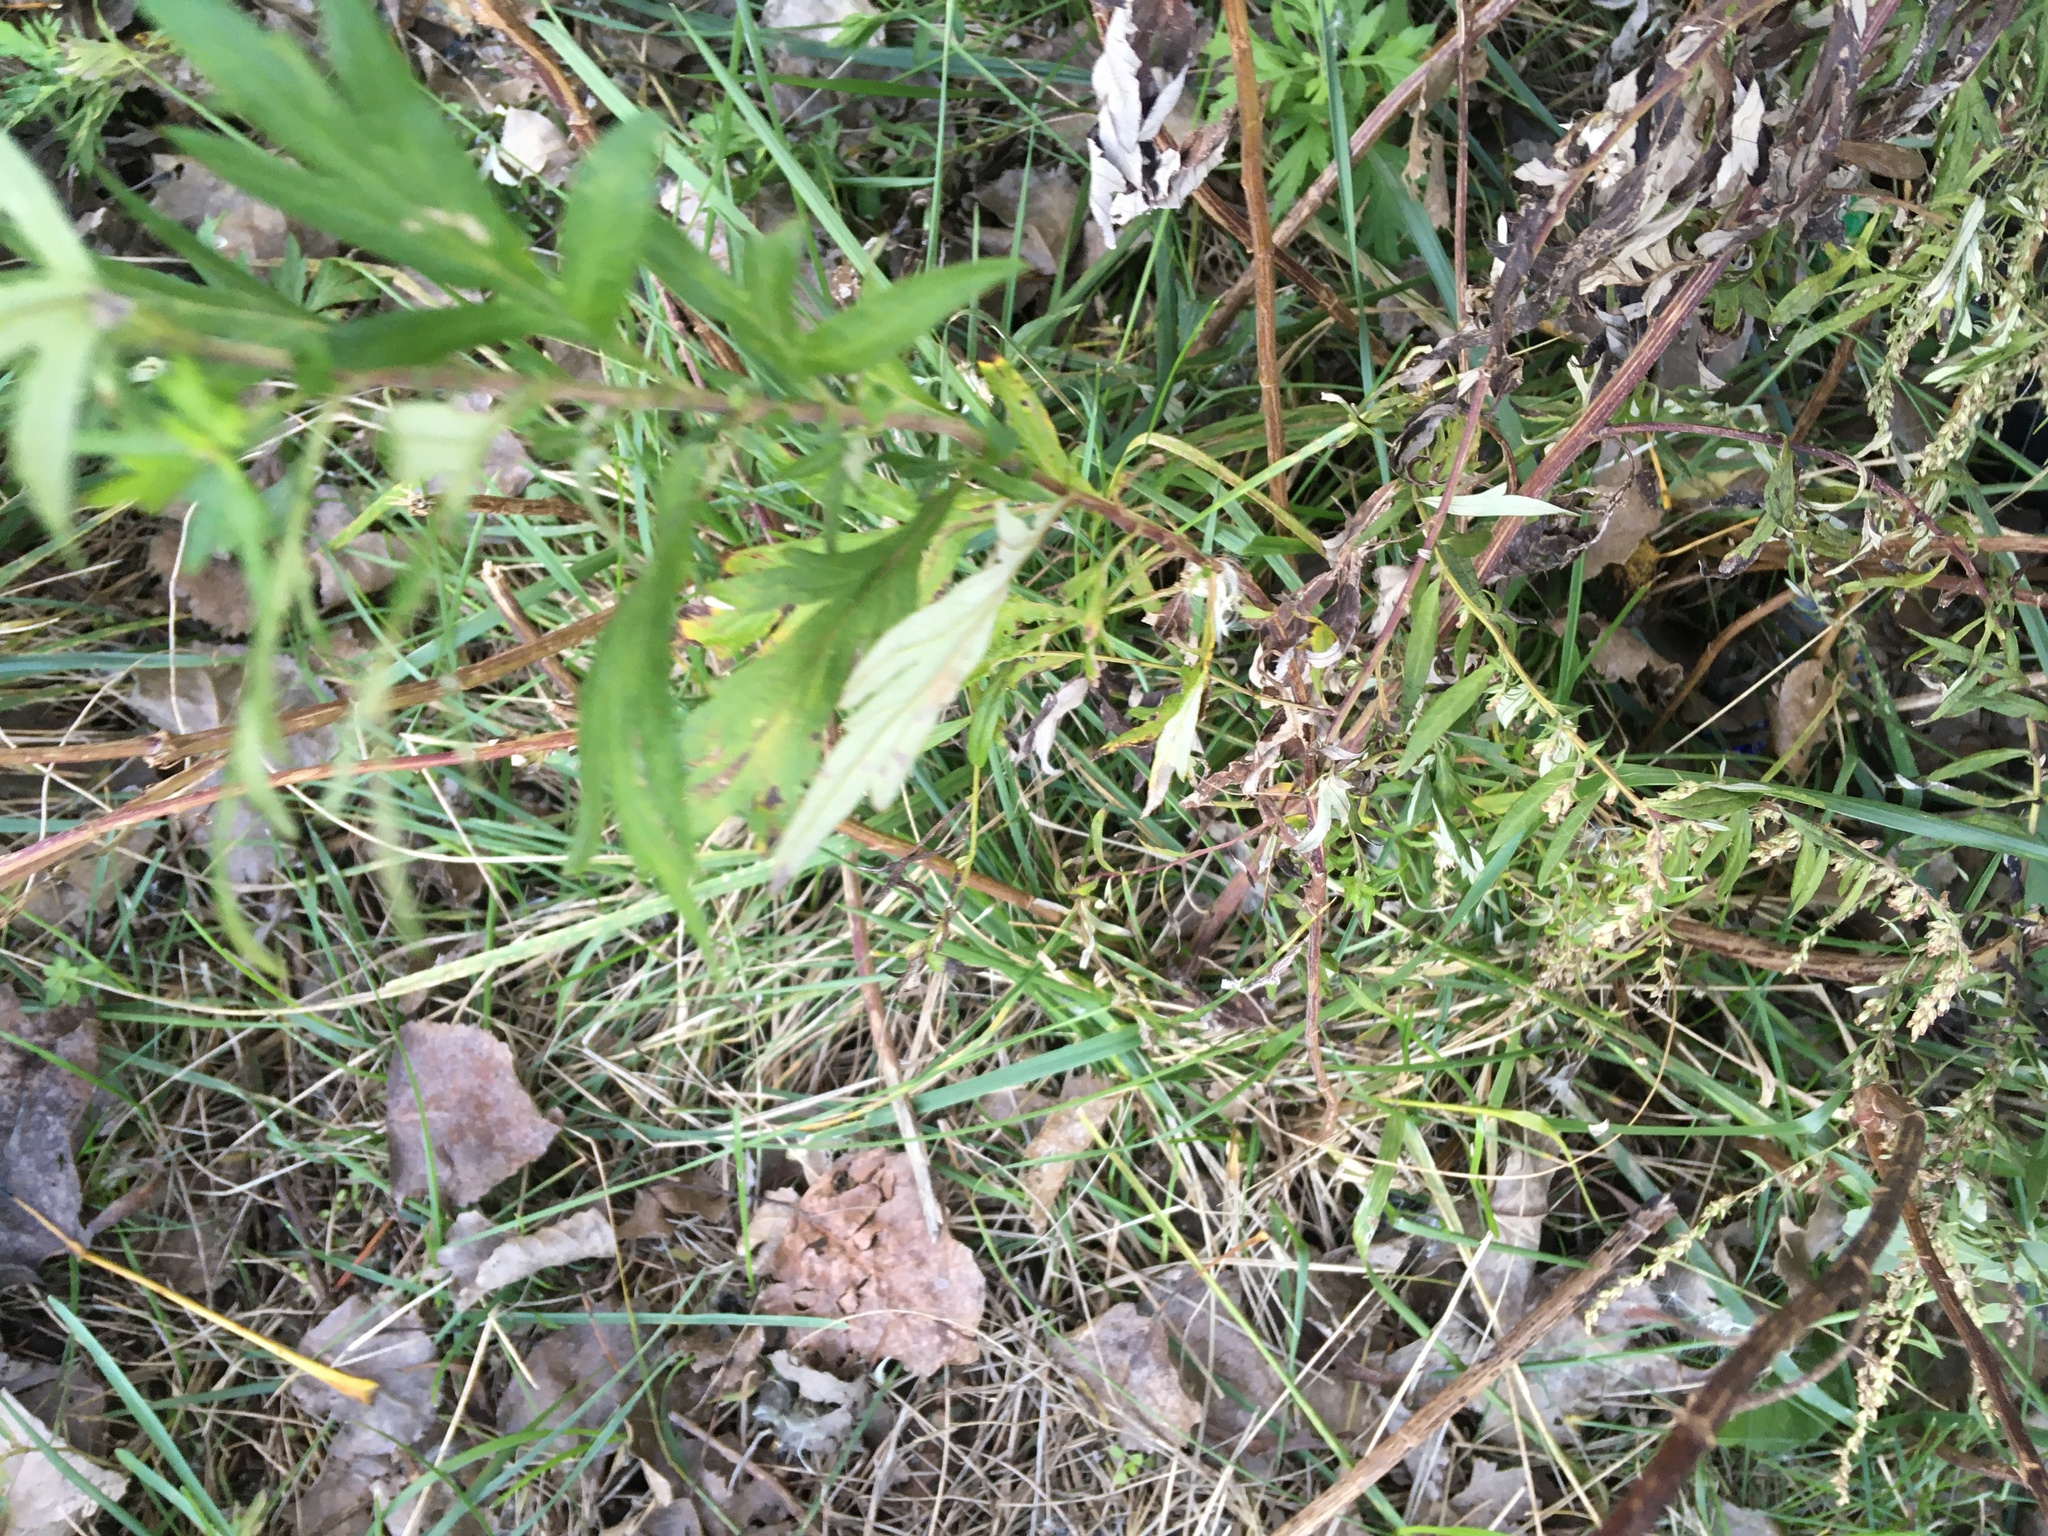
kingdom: Plantae
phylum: Tracheophyta
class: Magnoliopsida
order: Asterales
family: Asteraceae
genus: Artemisia
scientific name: Artemisia vulgaris
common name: Mugwort
